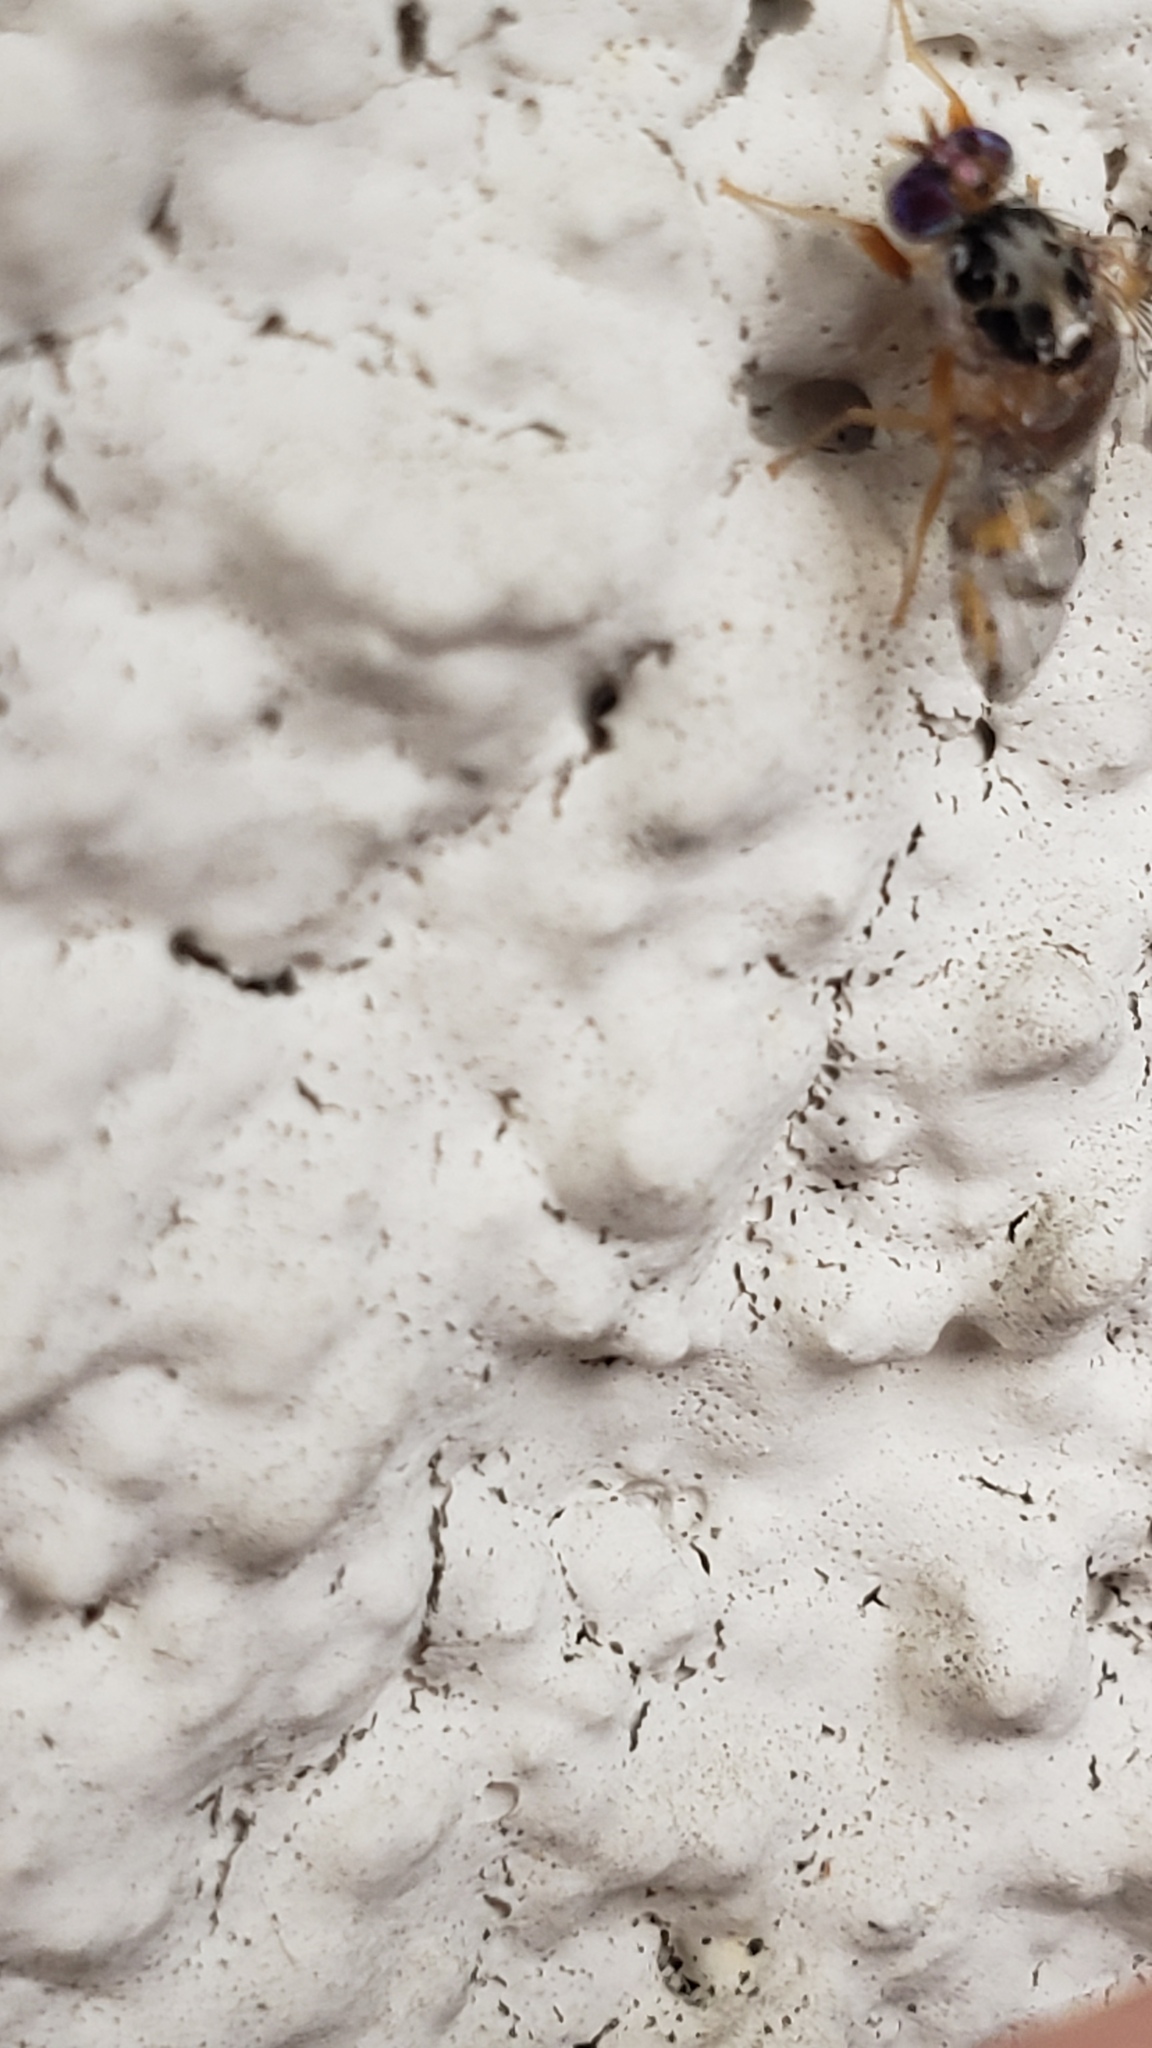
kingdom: Animalia
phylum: Arthropoda
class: Insecta
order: Diptera
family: Tephritidae
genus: Ceratitis
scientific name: Ceratitis capitata
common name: Mediterranean fruit fly
